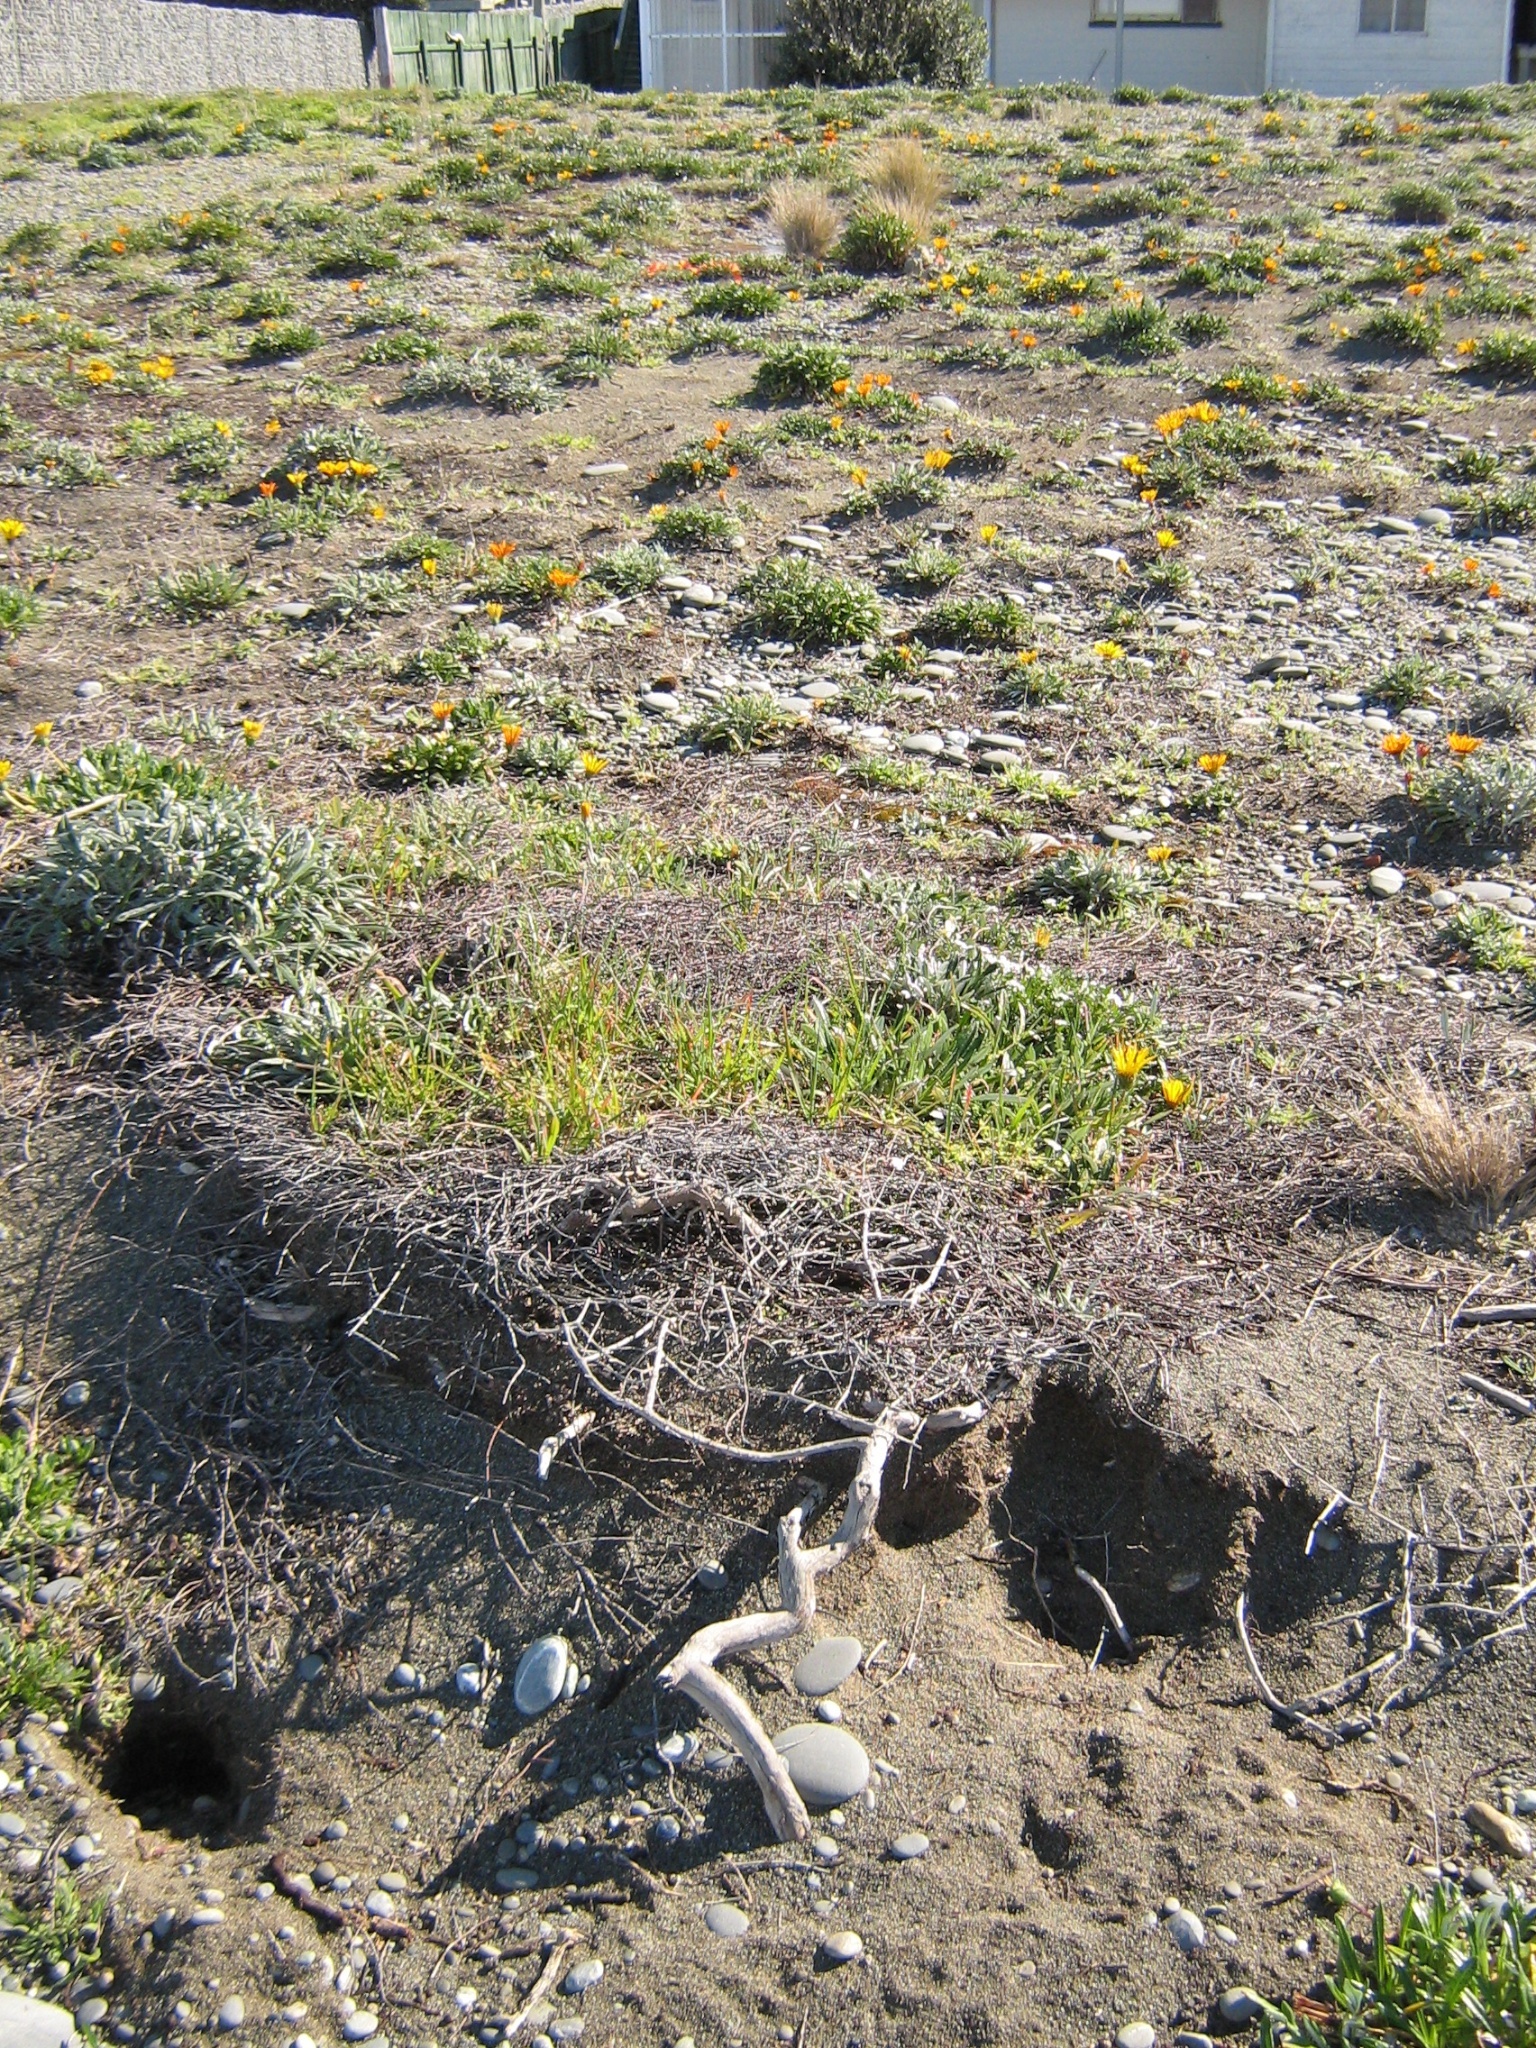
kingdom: Plantae
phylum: Tracheophyta
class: Magnoliopsida
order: Asterales
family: Asteraceae
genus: Gazania
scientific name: Gazania splendens
